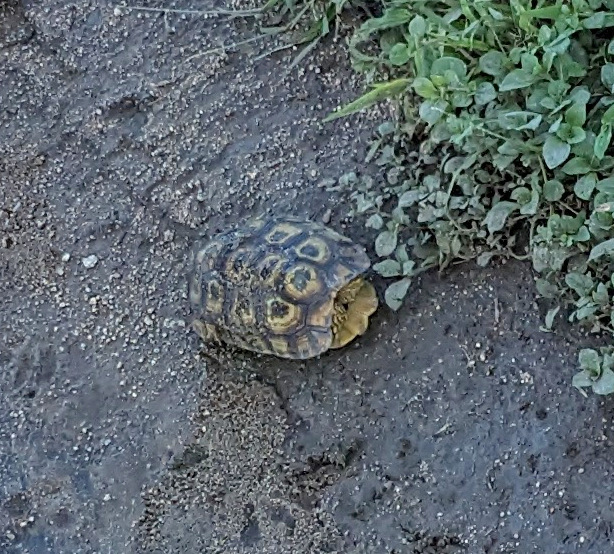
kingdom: Animalia
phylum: Chordata
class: Testudines
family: Testudinidae
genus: Kinixys
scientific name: Kinixys spekii
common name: Speke's hingeback tortoise
